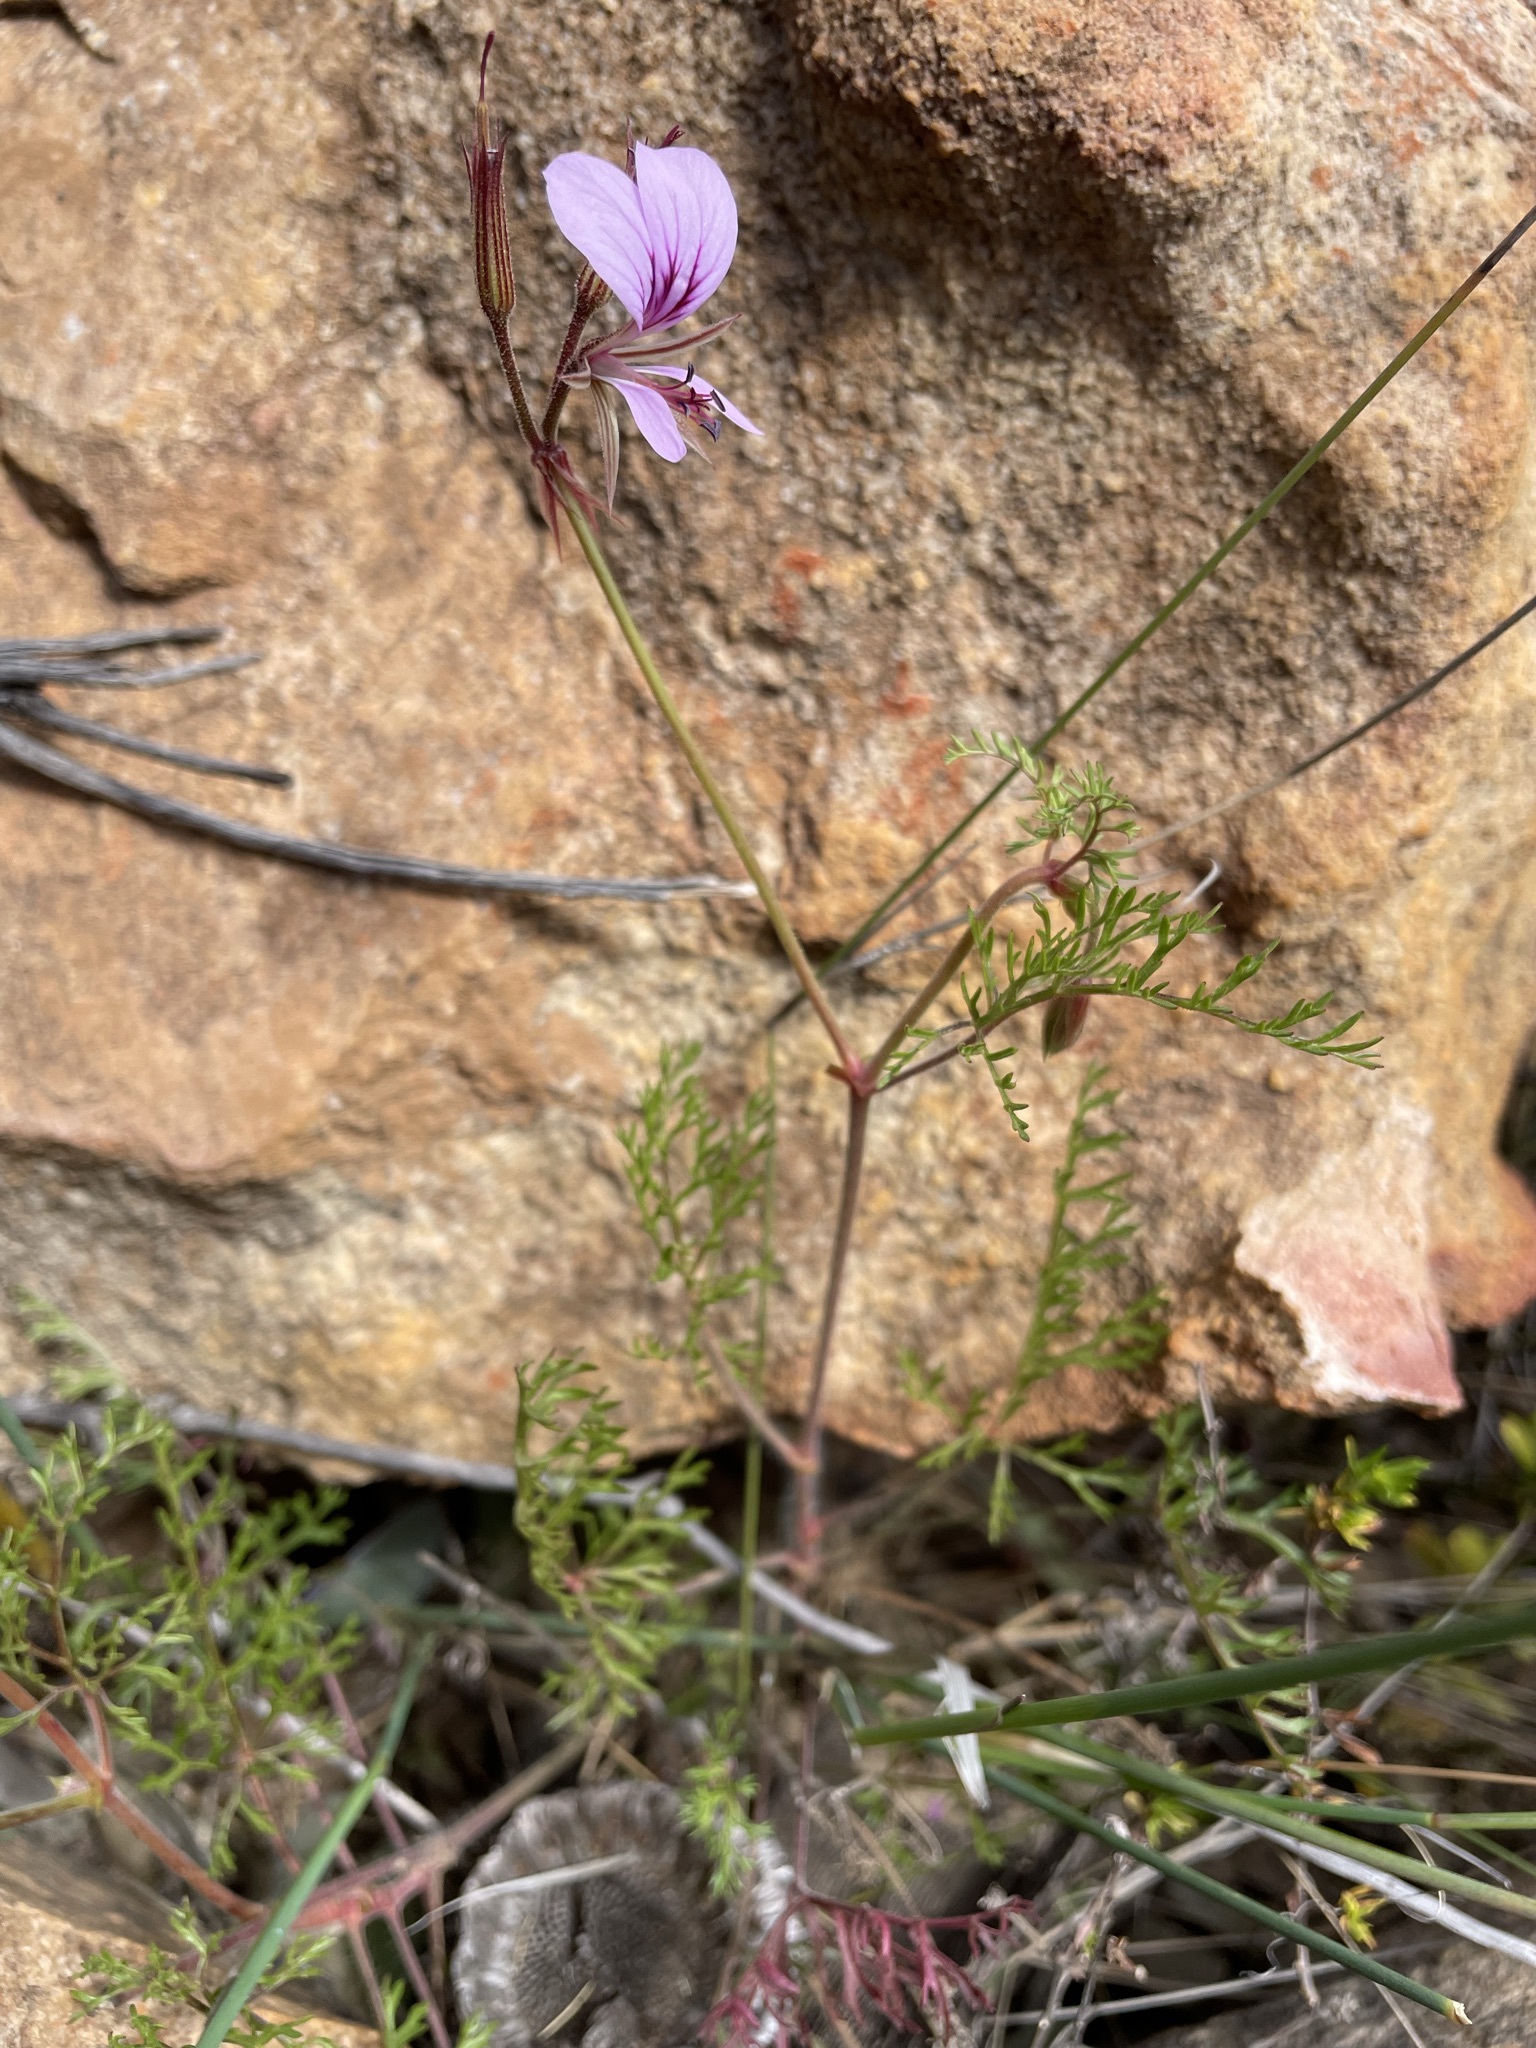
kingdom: Plantae
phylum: Tracheophyta
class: Magnoliopsida
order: Geraniales
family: Geraniaceae
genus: Pelargonium
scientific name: Pelargonium myrrhifolium
